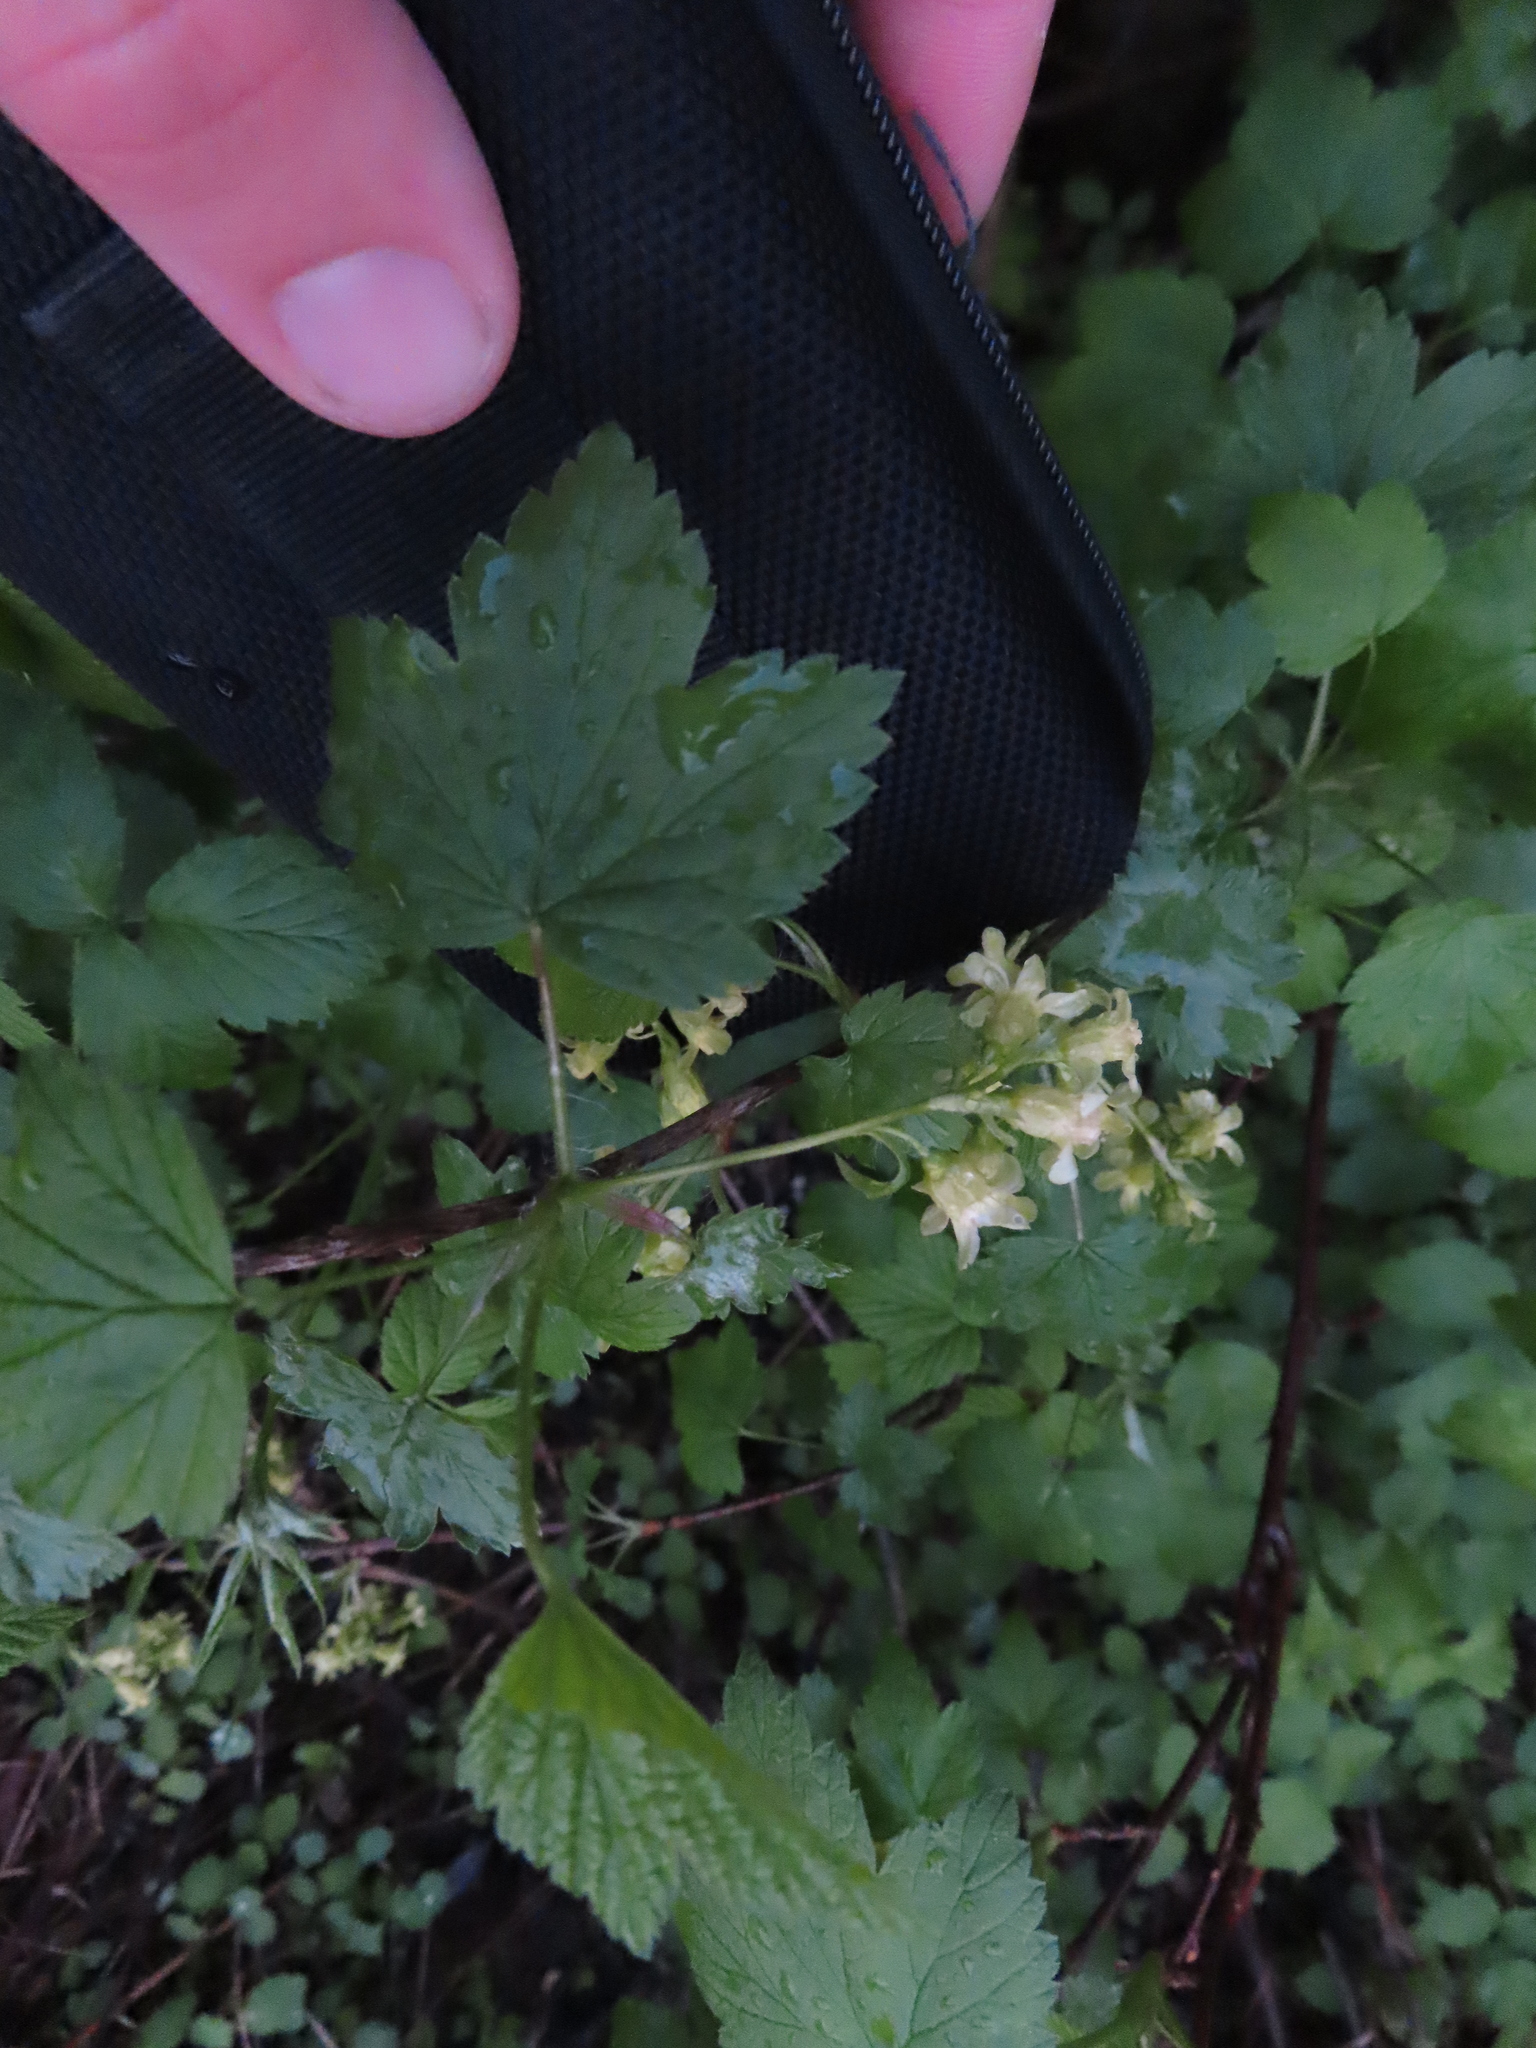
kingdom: Plantae
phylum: Tracheophyta
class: Magnoliopsida
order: Saxifragales
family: Grossulariaceae
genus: Ribes
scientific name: Ribes americanum
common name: American black currant
